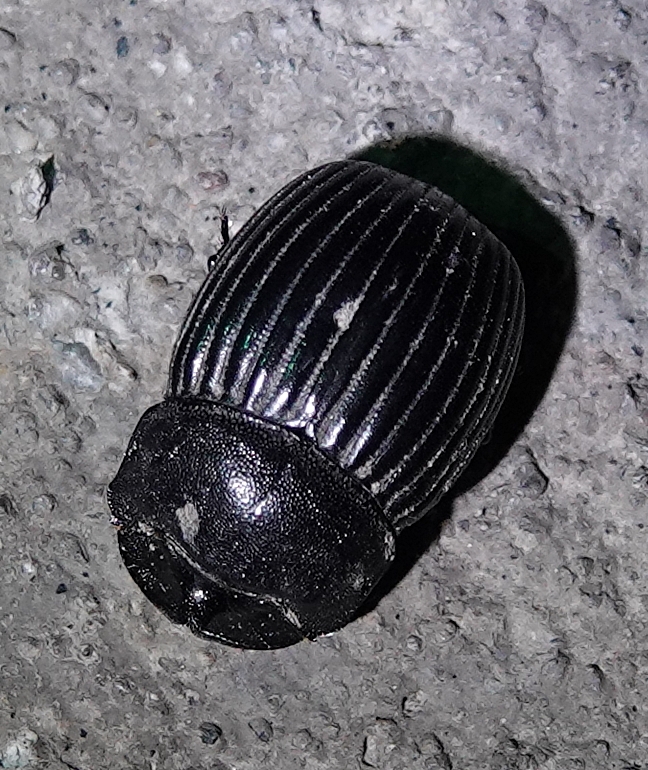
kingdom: Animalia
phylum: Arthropoda
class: Insecta
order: Coleoptera
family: Scarabaeidae
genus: Copris
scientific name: Copris fricator
